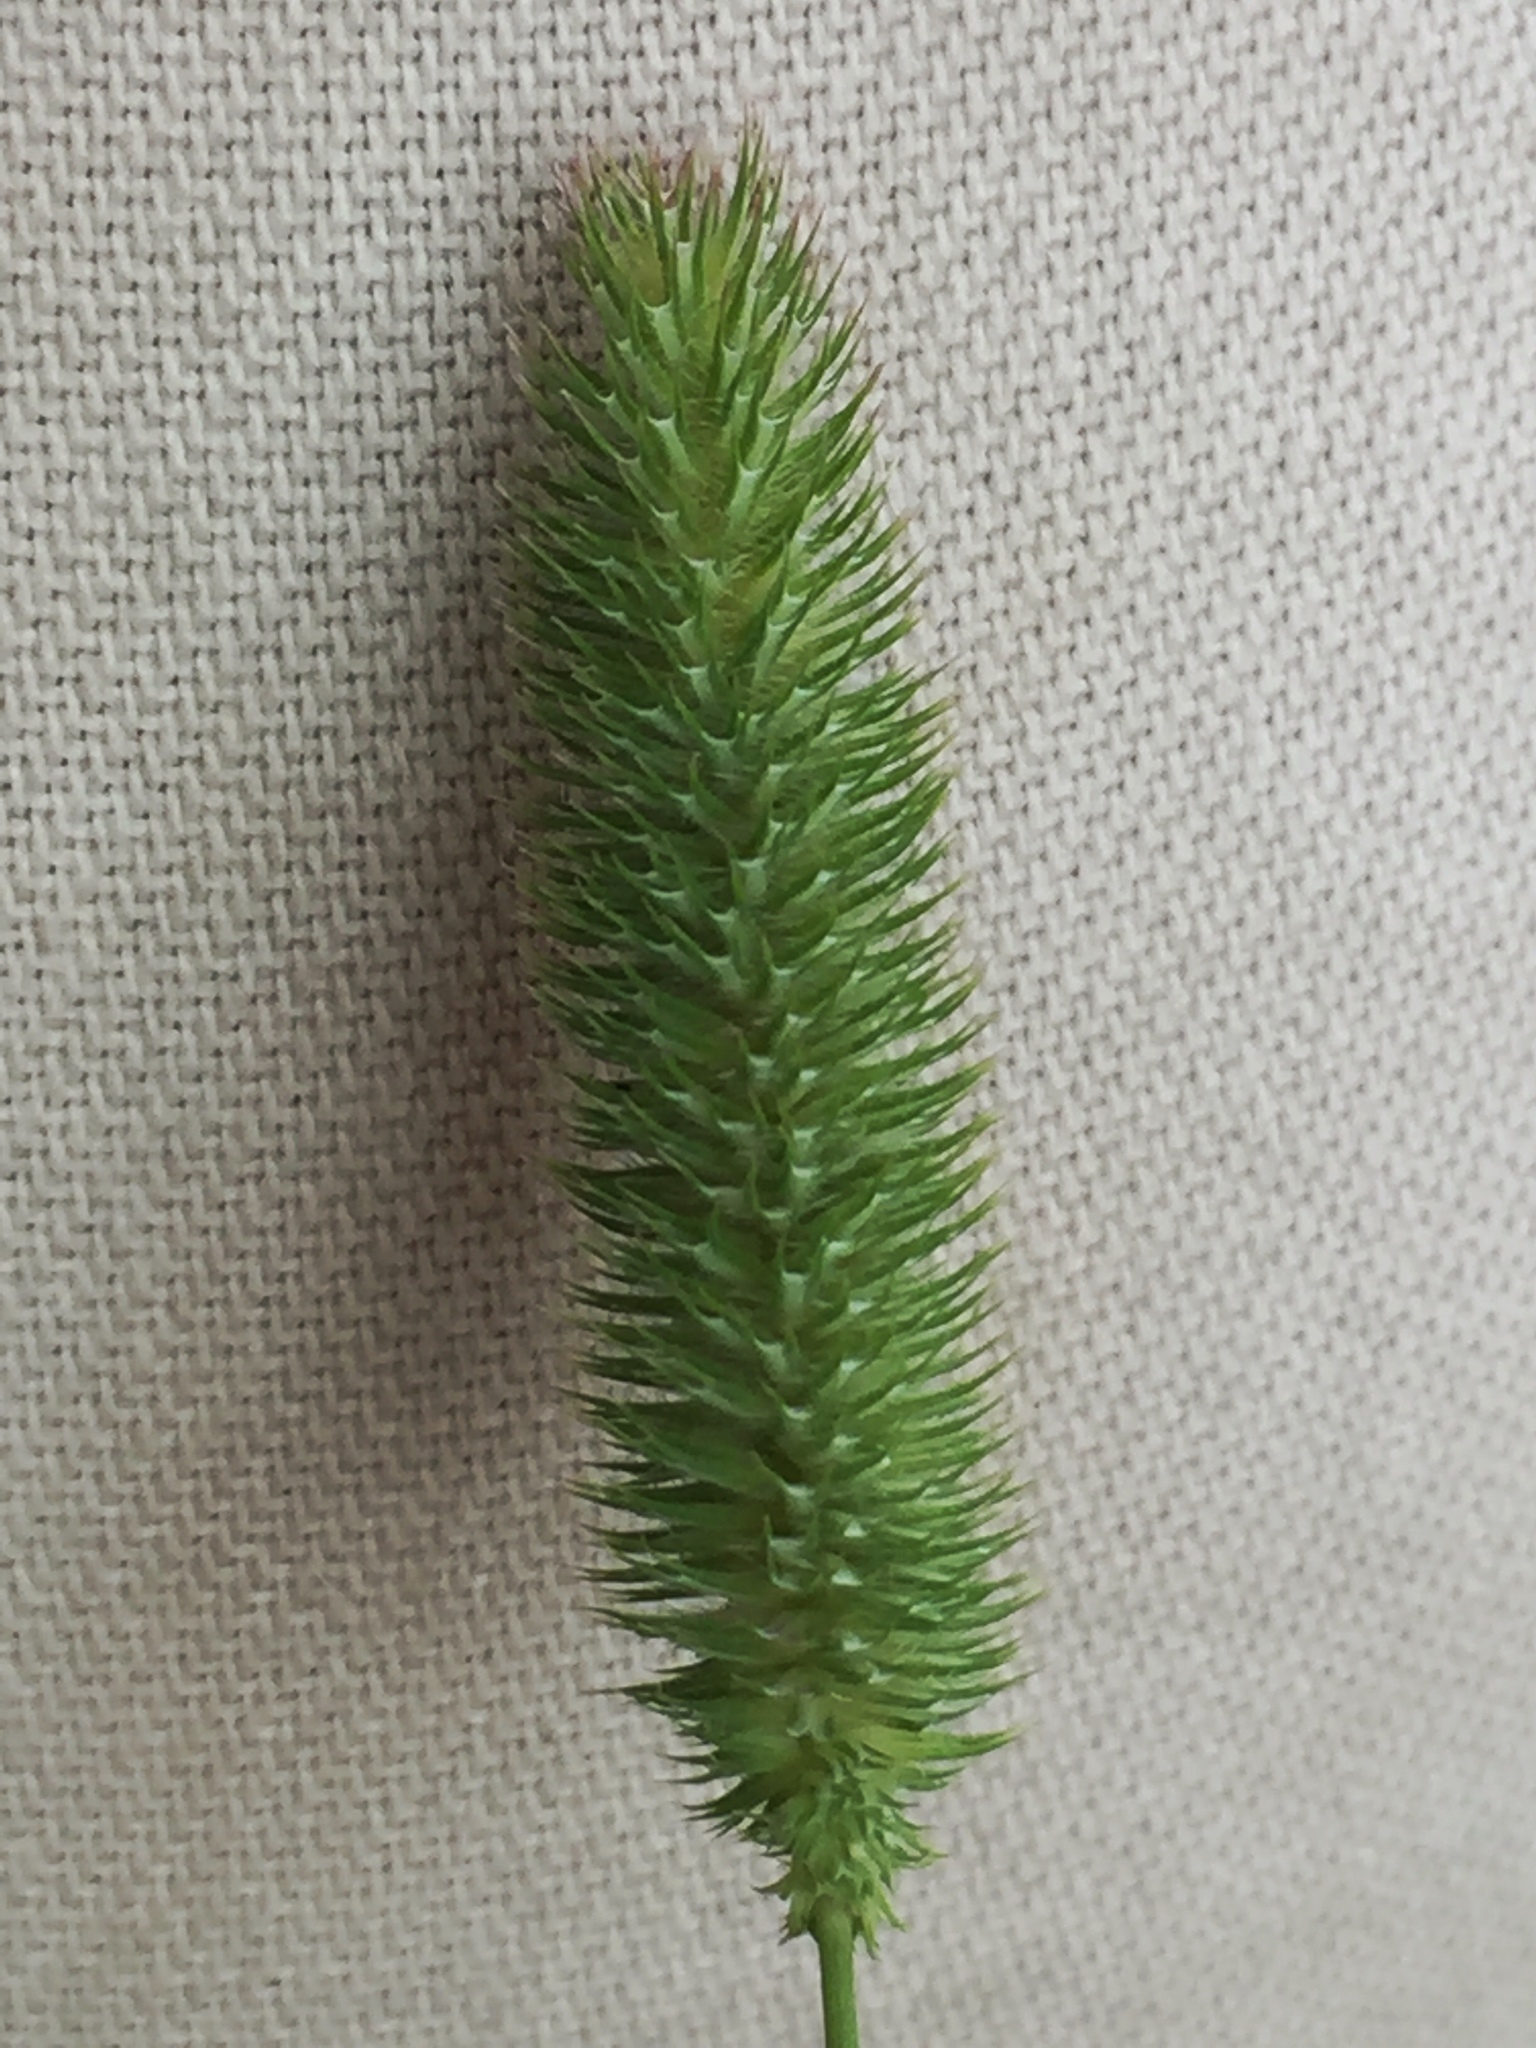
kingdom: Plantae
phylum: Tracheophyta
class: Liliopsida
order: Poales
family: Poaceae
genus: Phleum
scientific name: Phleum pratense
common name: Timothy grass
